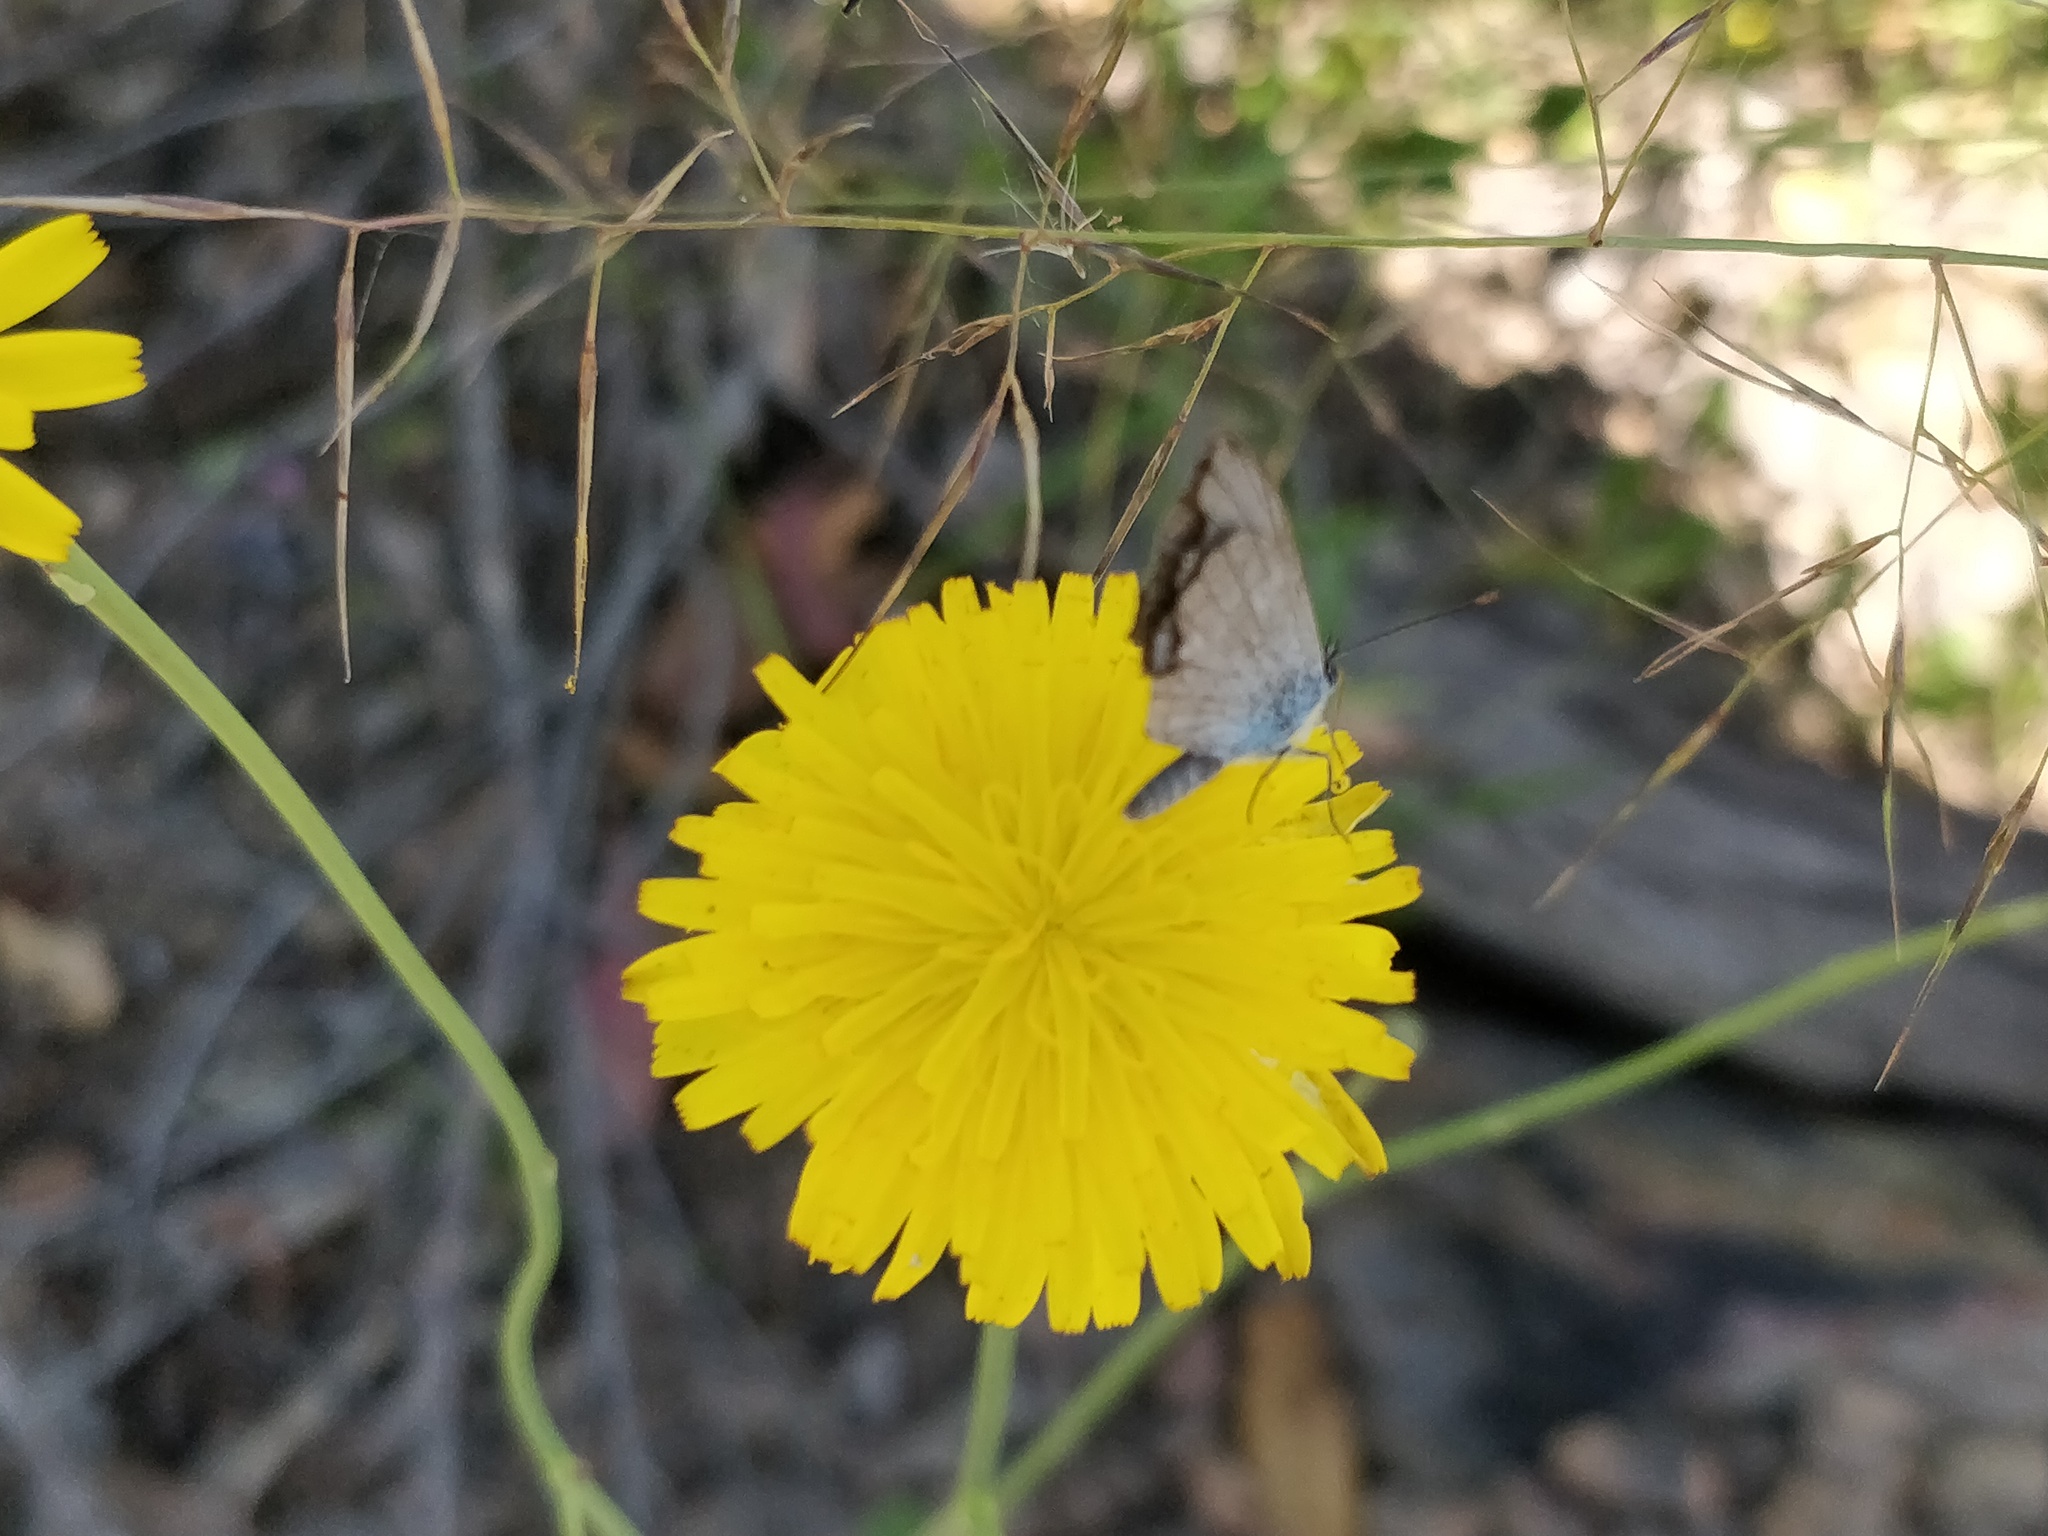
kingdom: Animalia
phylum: Arthropoda
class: Insecta
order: Lepidoptera
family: Lycaenidae
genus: Zizina
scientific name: Zizina labradus
